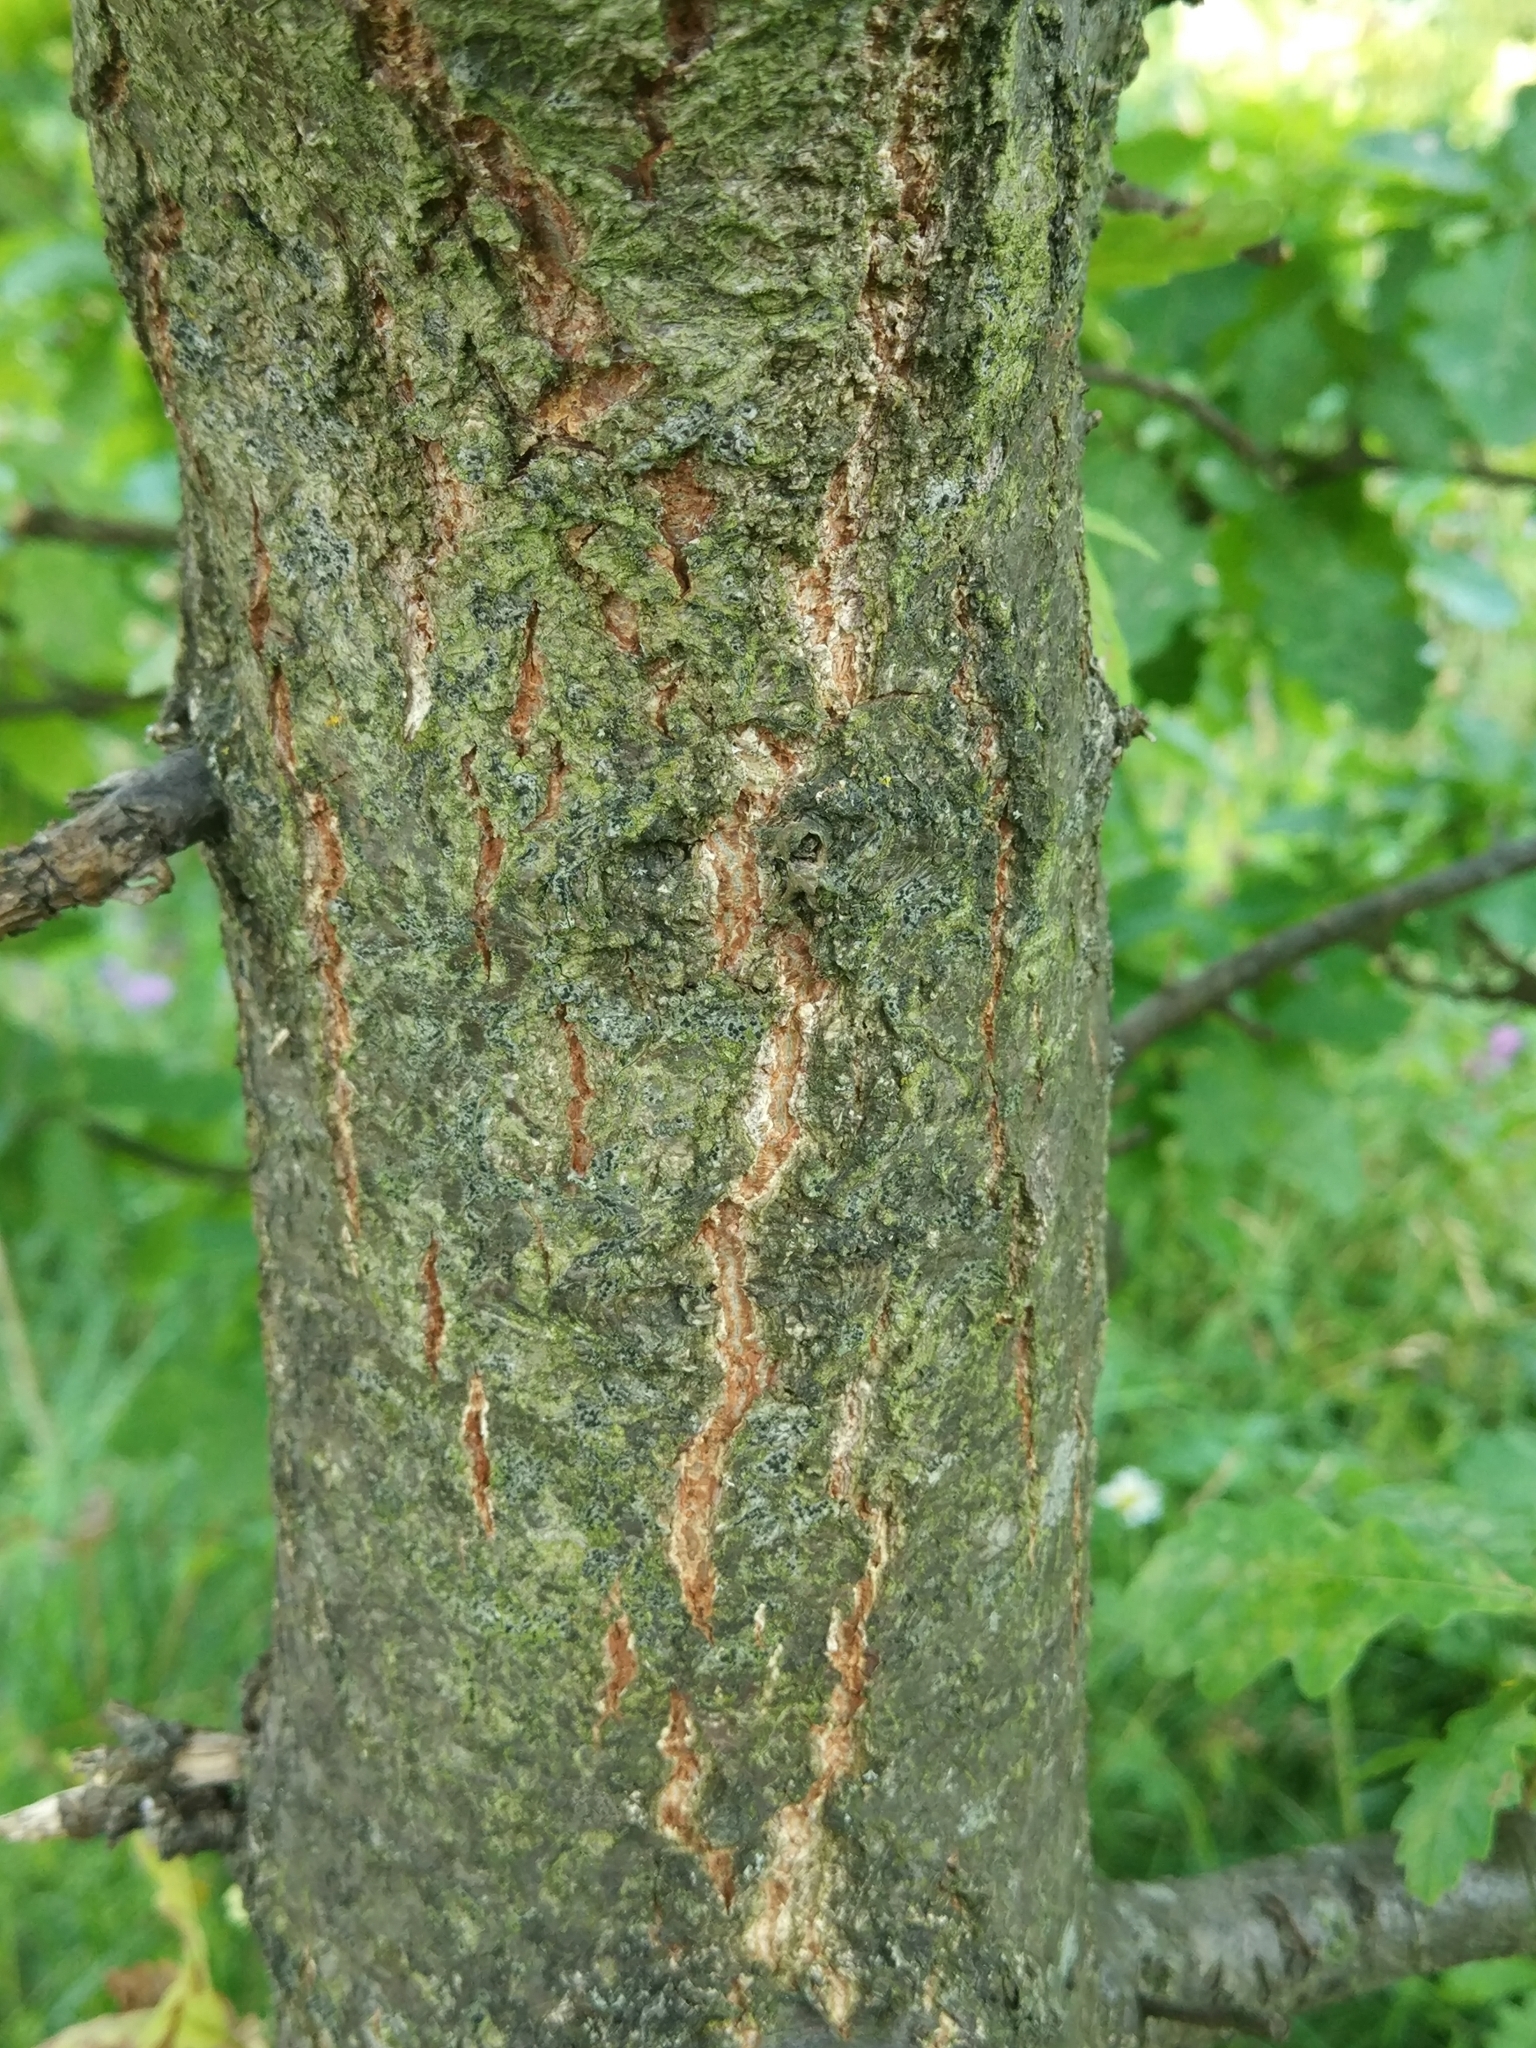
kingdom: Plantae
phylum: Tracheophyta
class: Magnoliopsida
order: Fagales
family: Fagaceae
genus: Quercus
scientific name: Quercus robur
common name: Pedunculate oak
